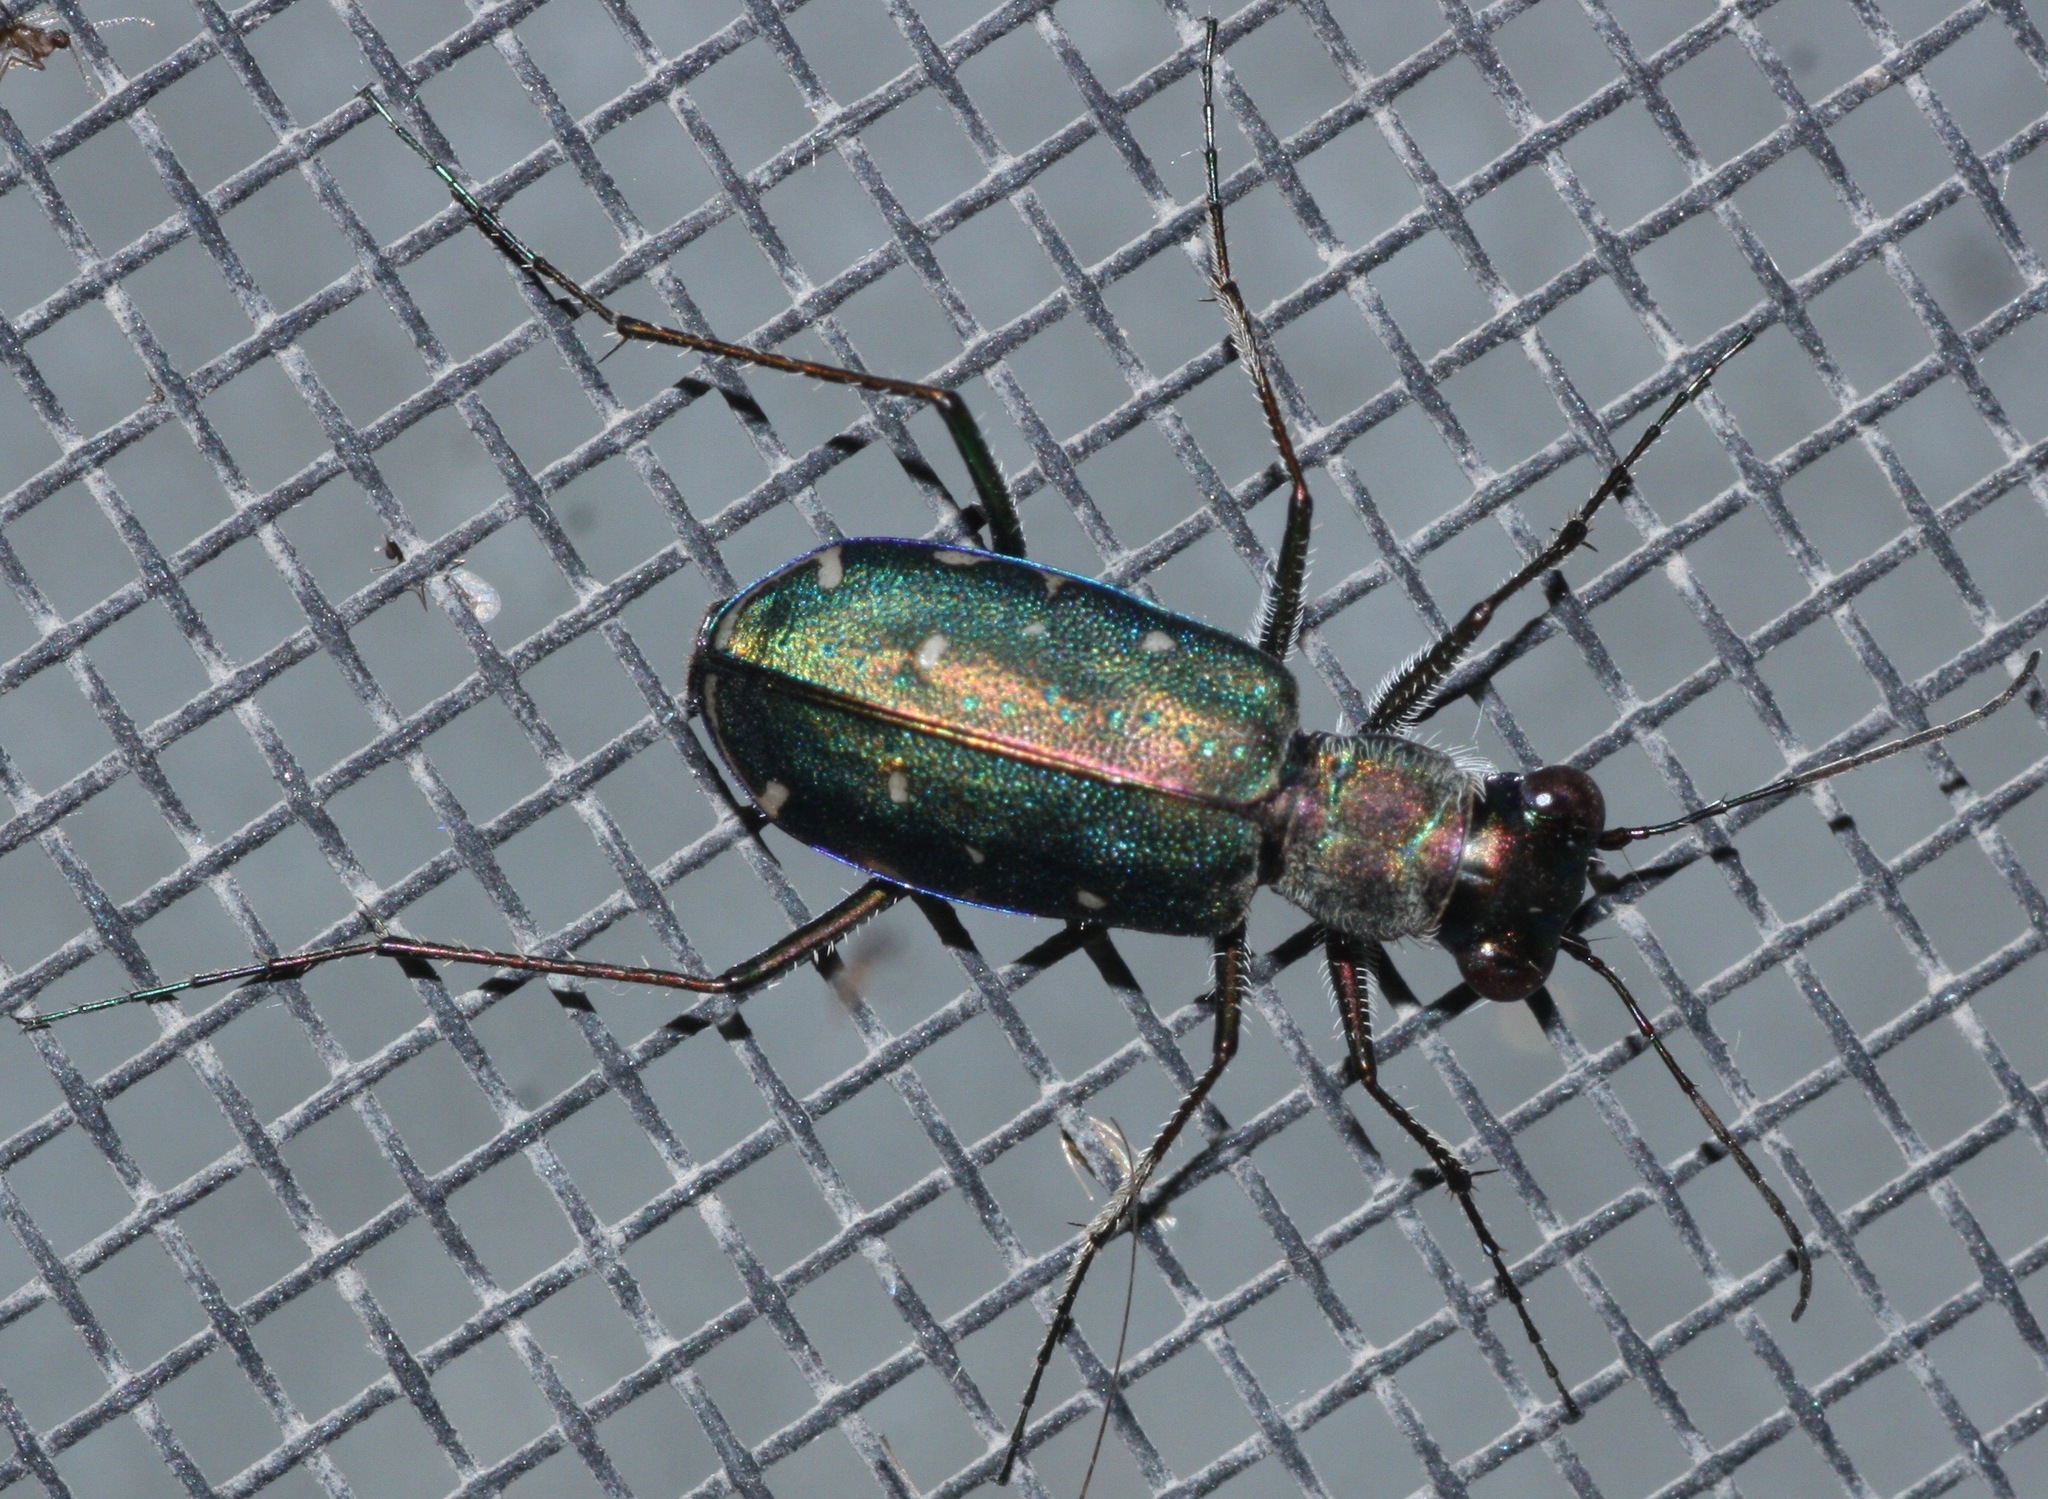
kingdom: Animalia
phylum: Arthropoda
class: Insecta
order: Coleoptera
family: Carabidae
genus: Cicindela
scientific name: Cicindela punctulata
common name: Punctured tiger beetle
